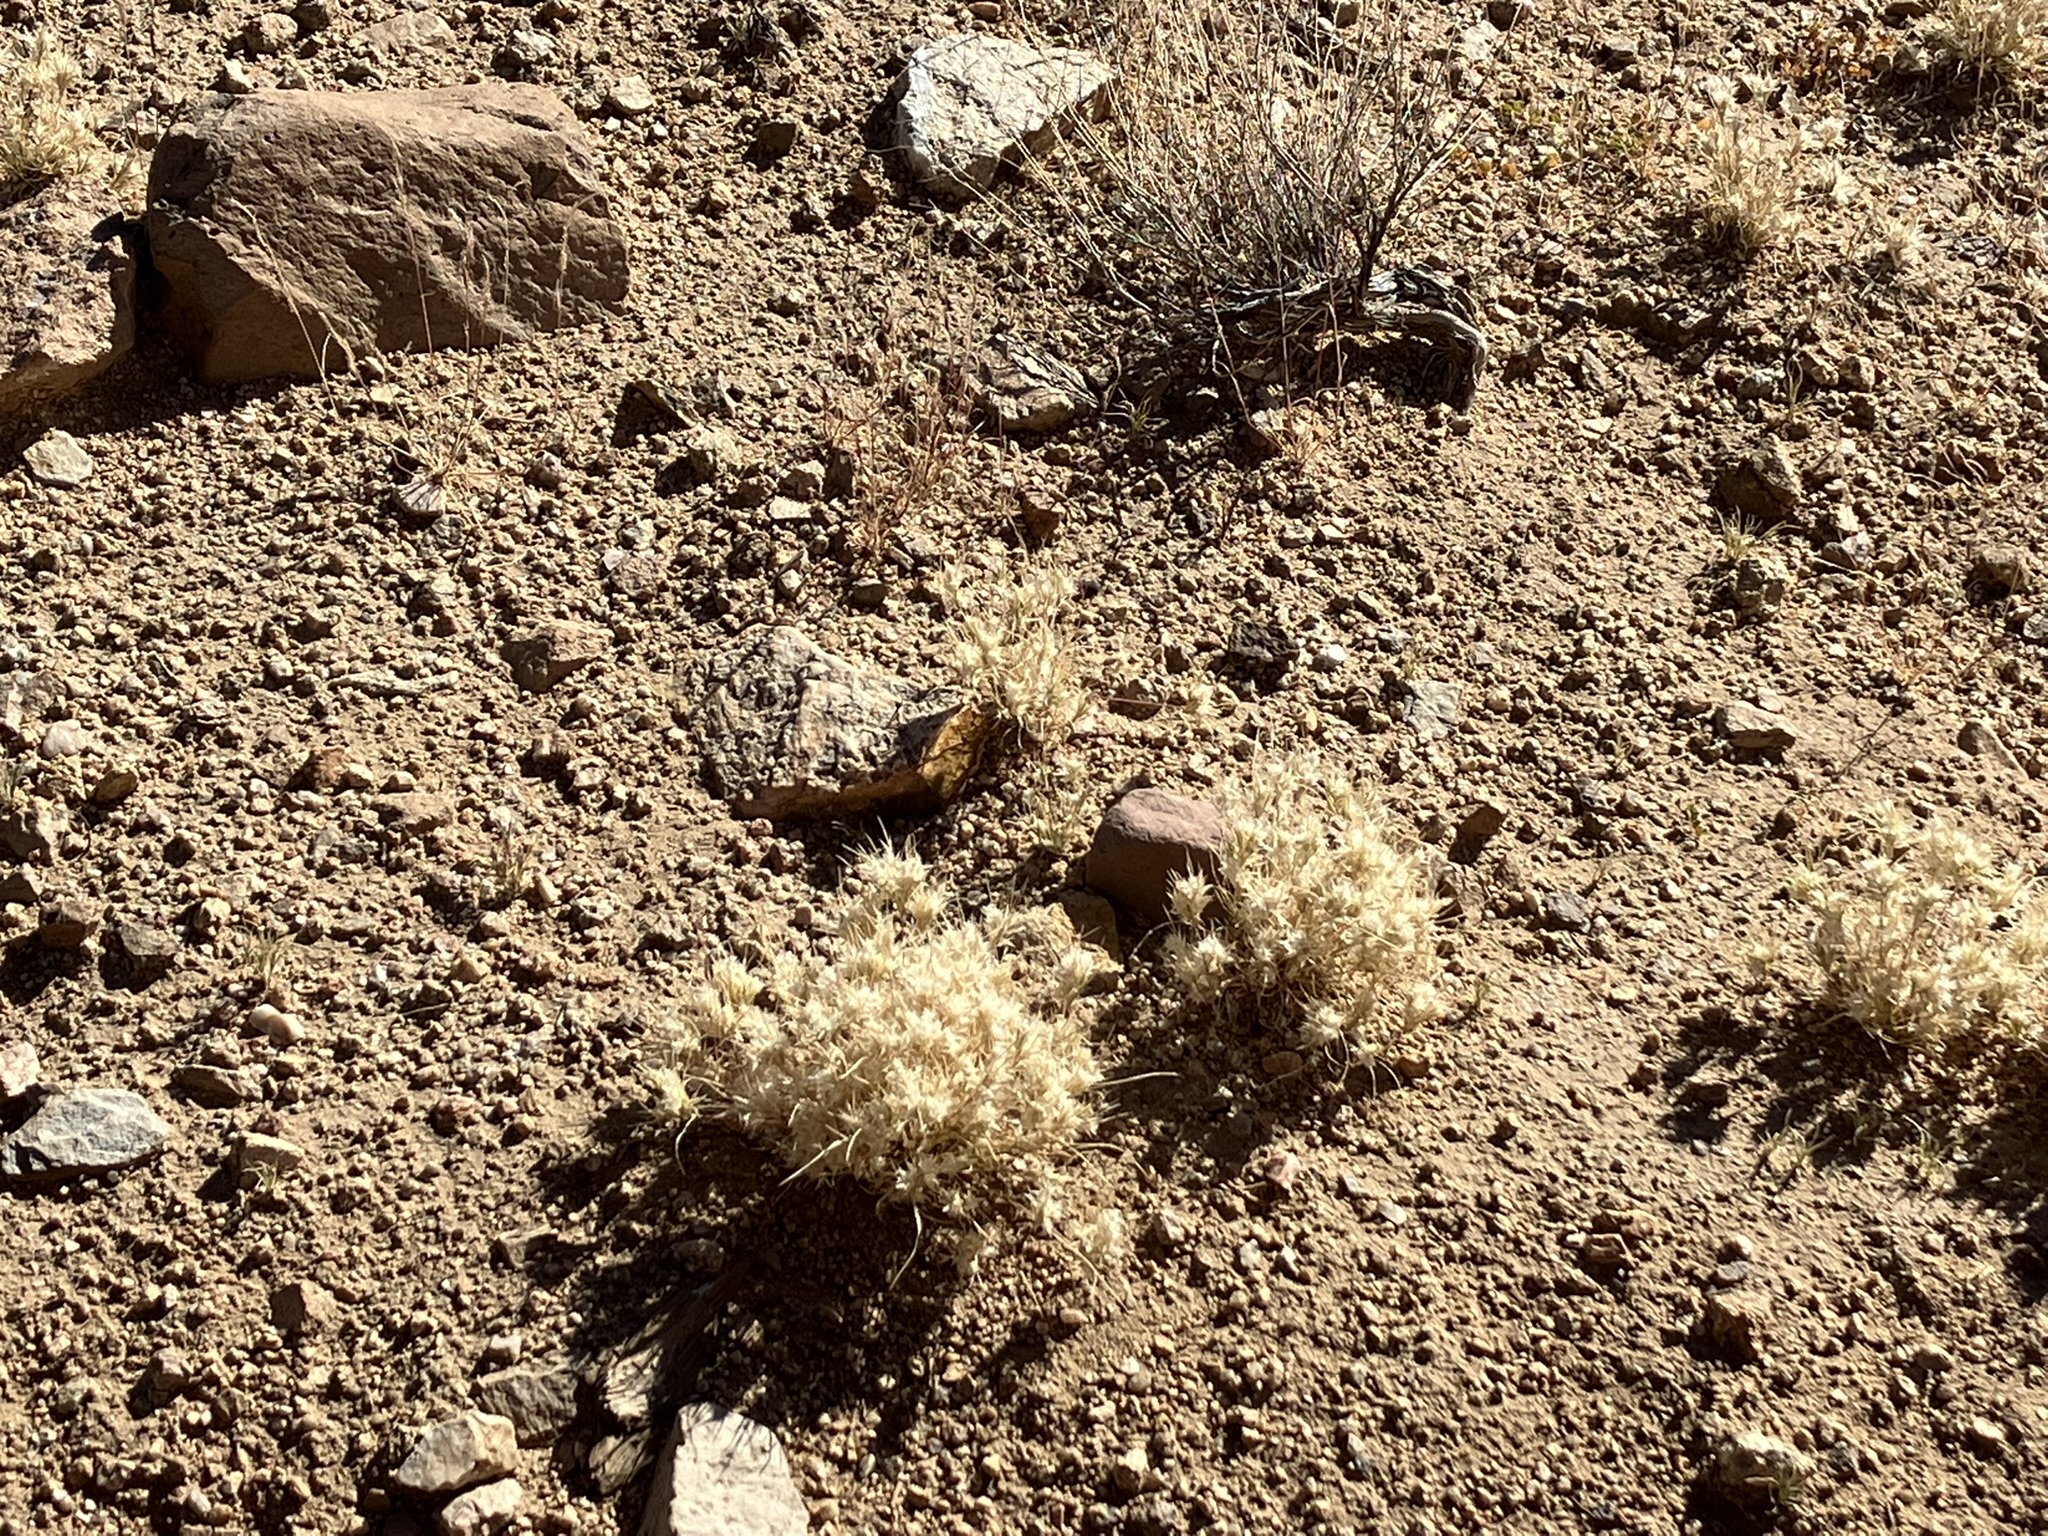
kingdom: Plantae
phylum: Tracheophyta
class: Liliopsida
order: Poales
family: Poaceae
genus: Dasyochloa
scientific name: Dasyochloa pulchella
